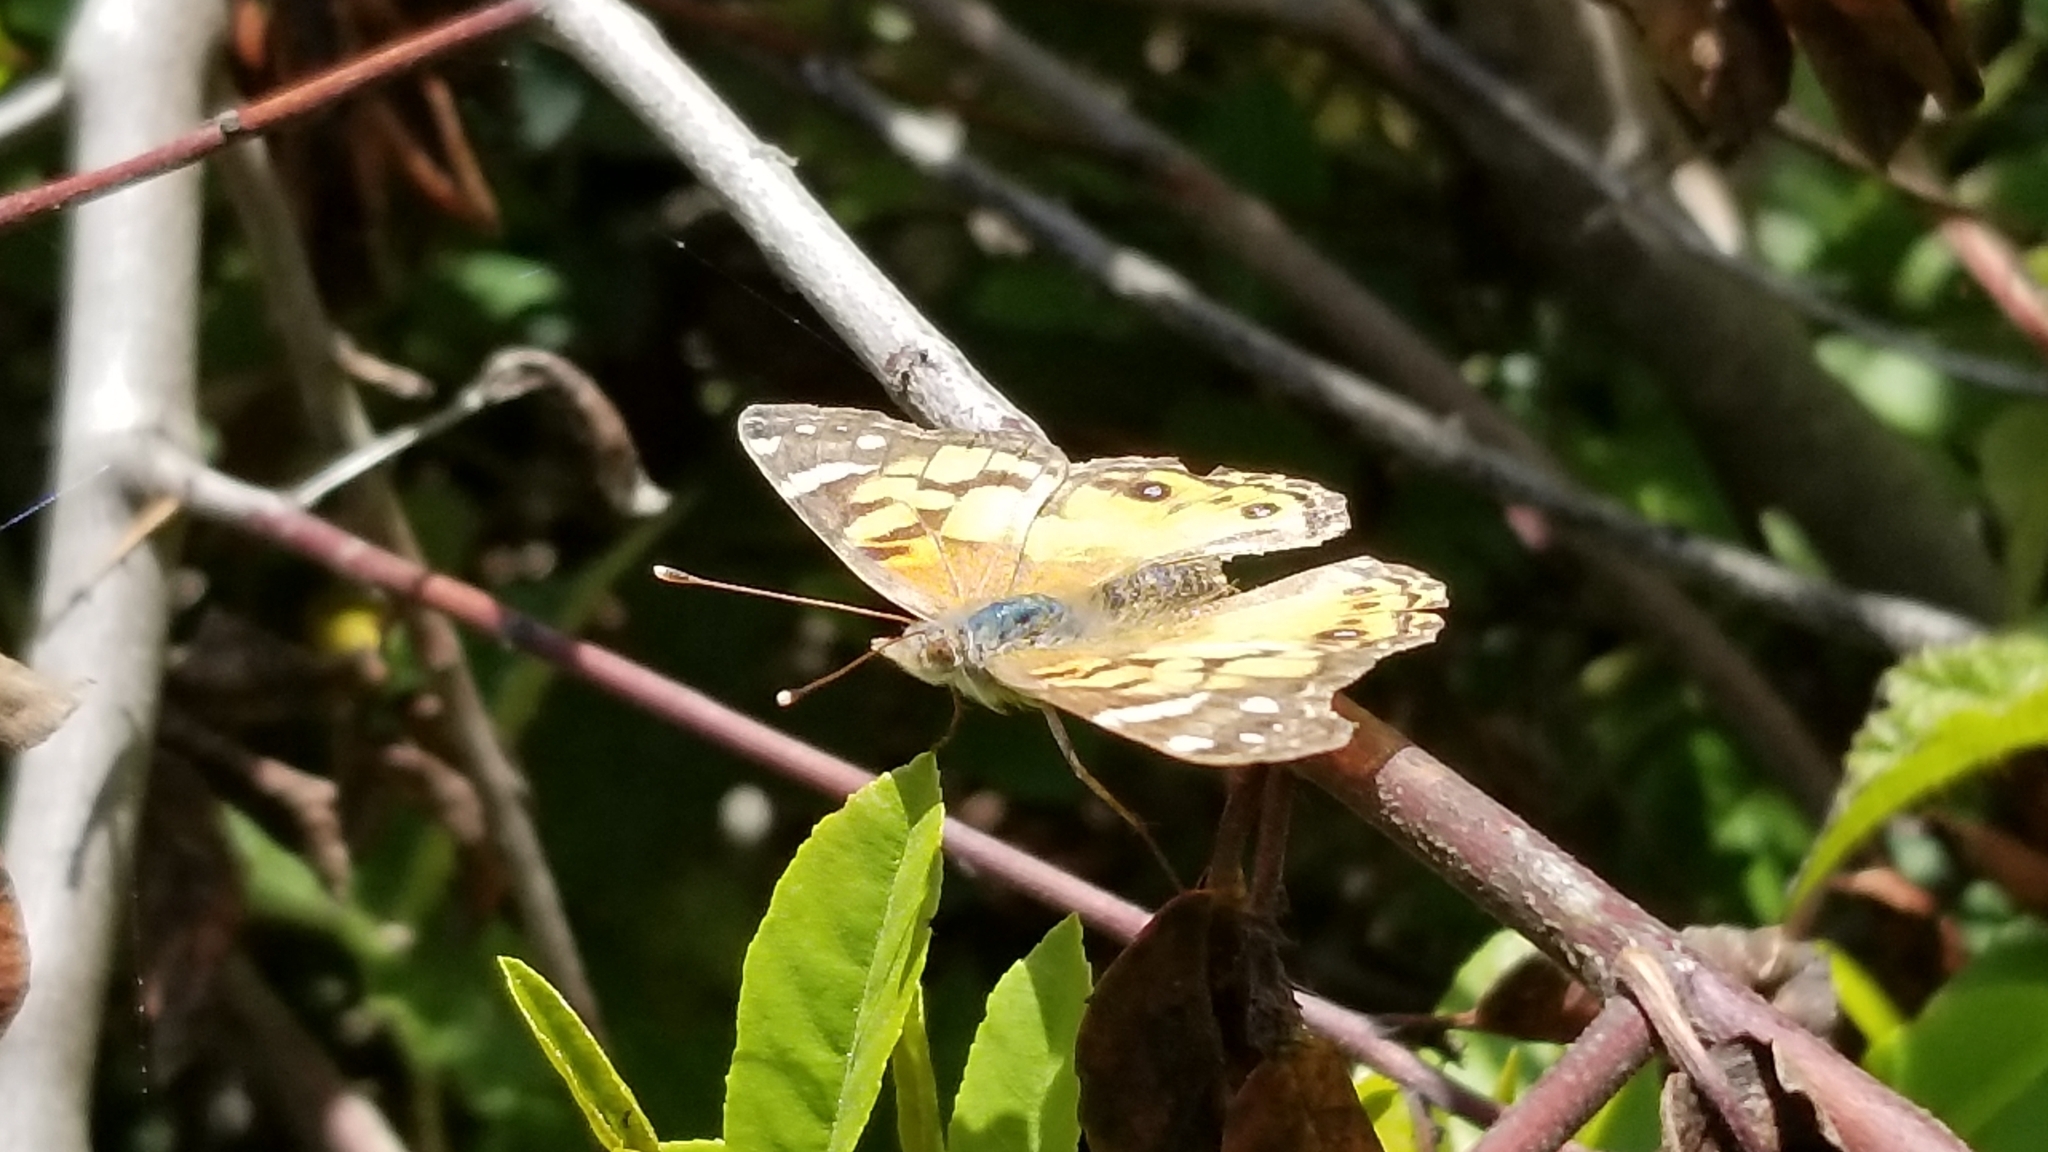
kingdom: Animalia
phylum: Arthropoda
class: Insecta
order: Lepidoptera
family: Nymphalidae
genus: Vanessa
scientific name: Vanessa virginiensis
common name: American lady
